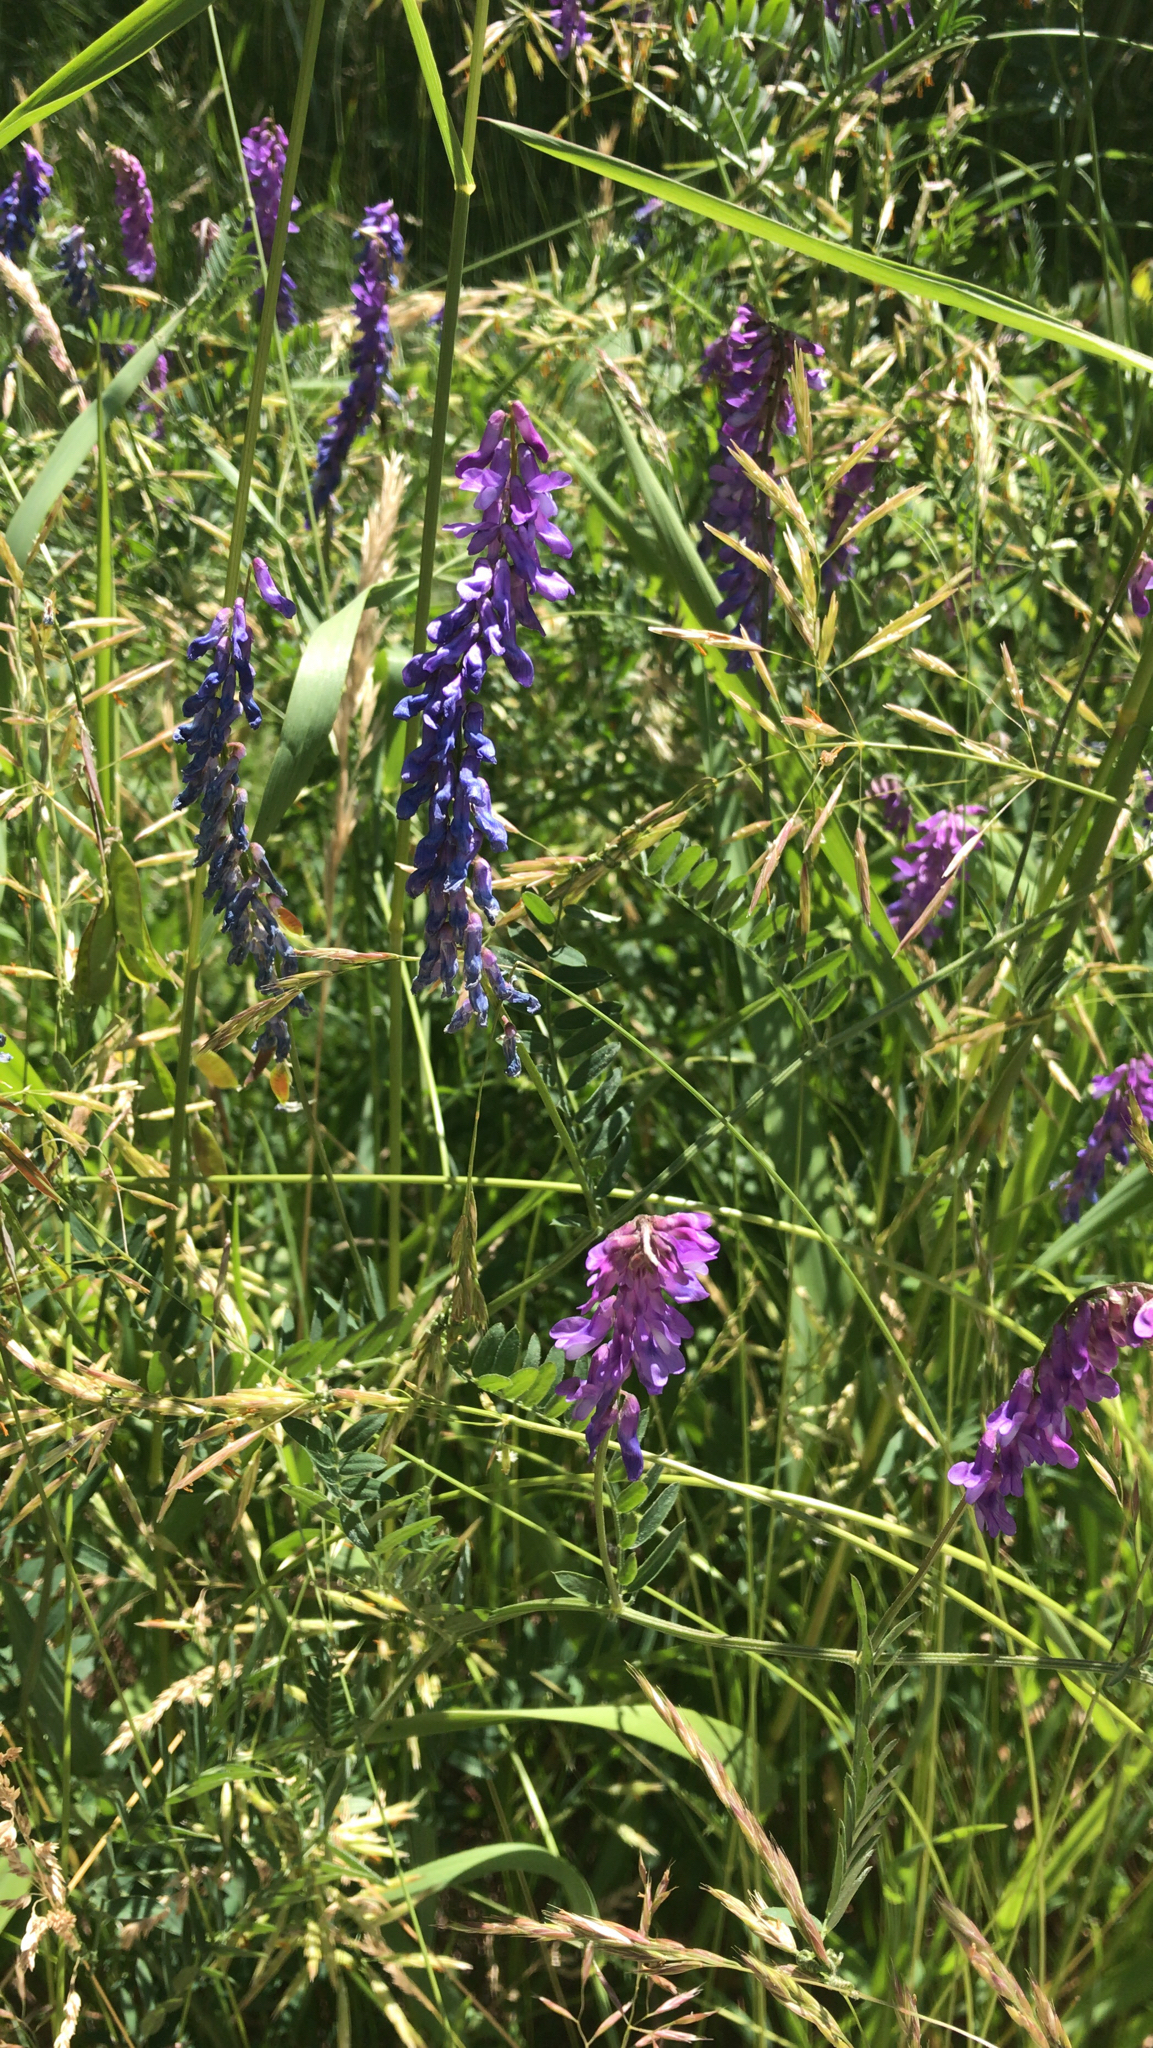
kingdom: Plantae
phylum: Tracheophyta
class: Magnoliopsida
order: Fabales
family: Fabaceae
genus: Vicia
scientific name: Vicia cracca
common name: Bird vetch
